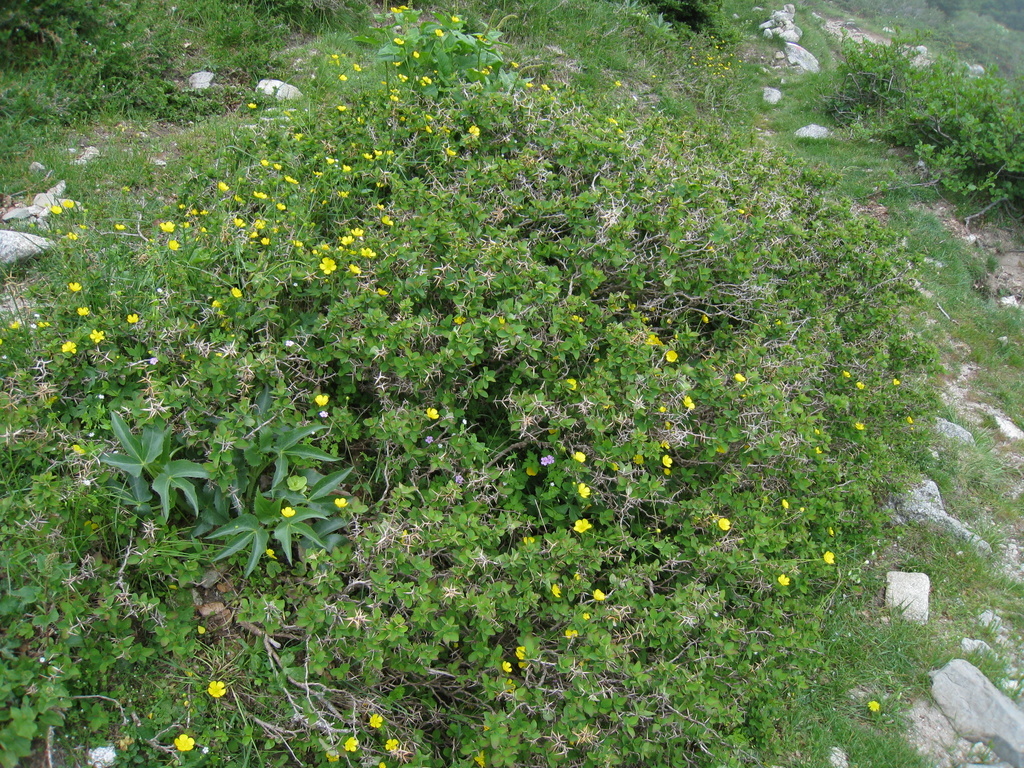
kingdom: Plantae
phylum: Tracheophyta
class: Magnoliopsida
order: Ranunculales
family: Berberidaceae
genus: Berberis
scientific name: Berberis aetnensis
